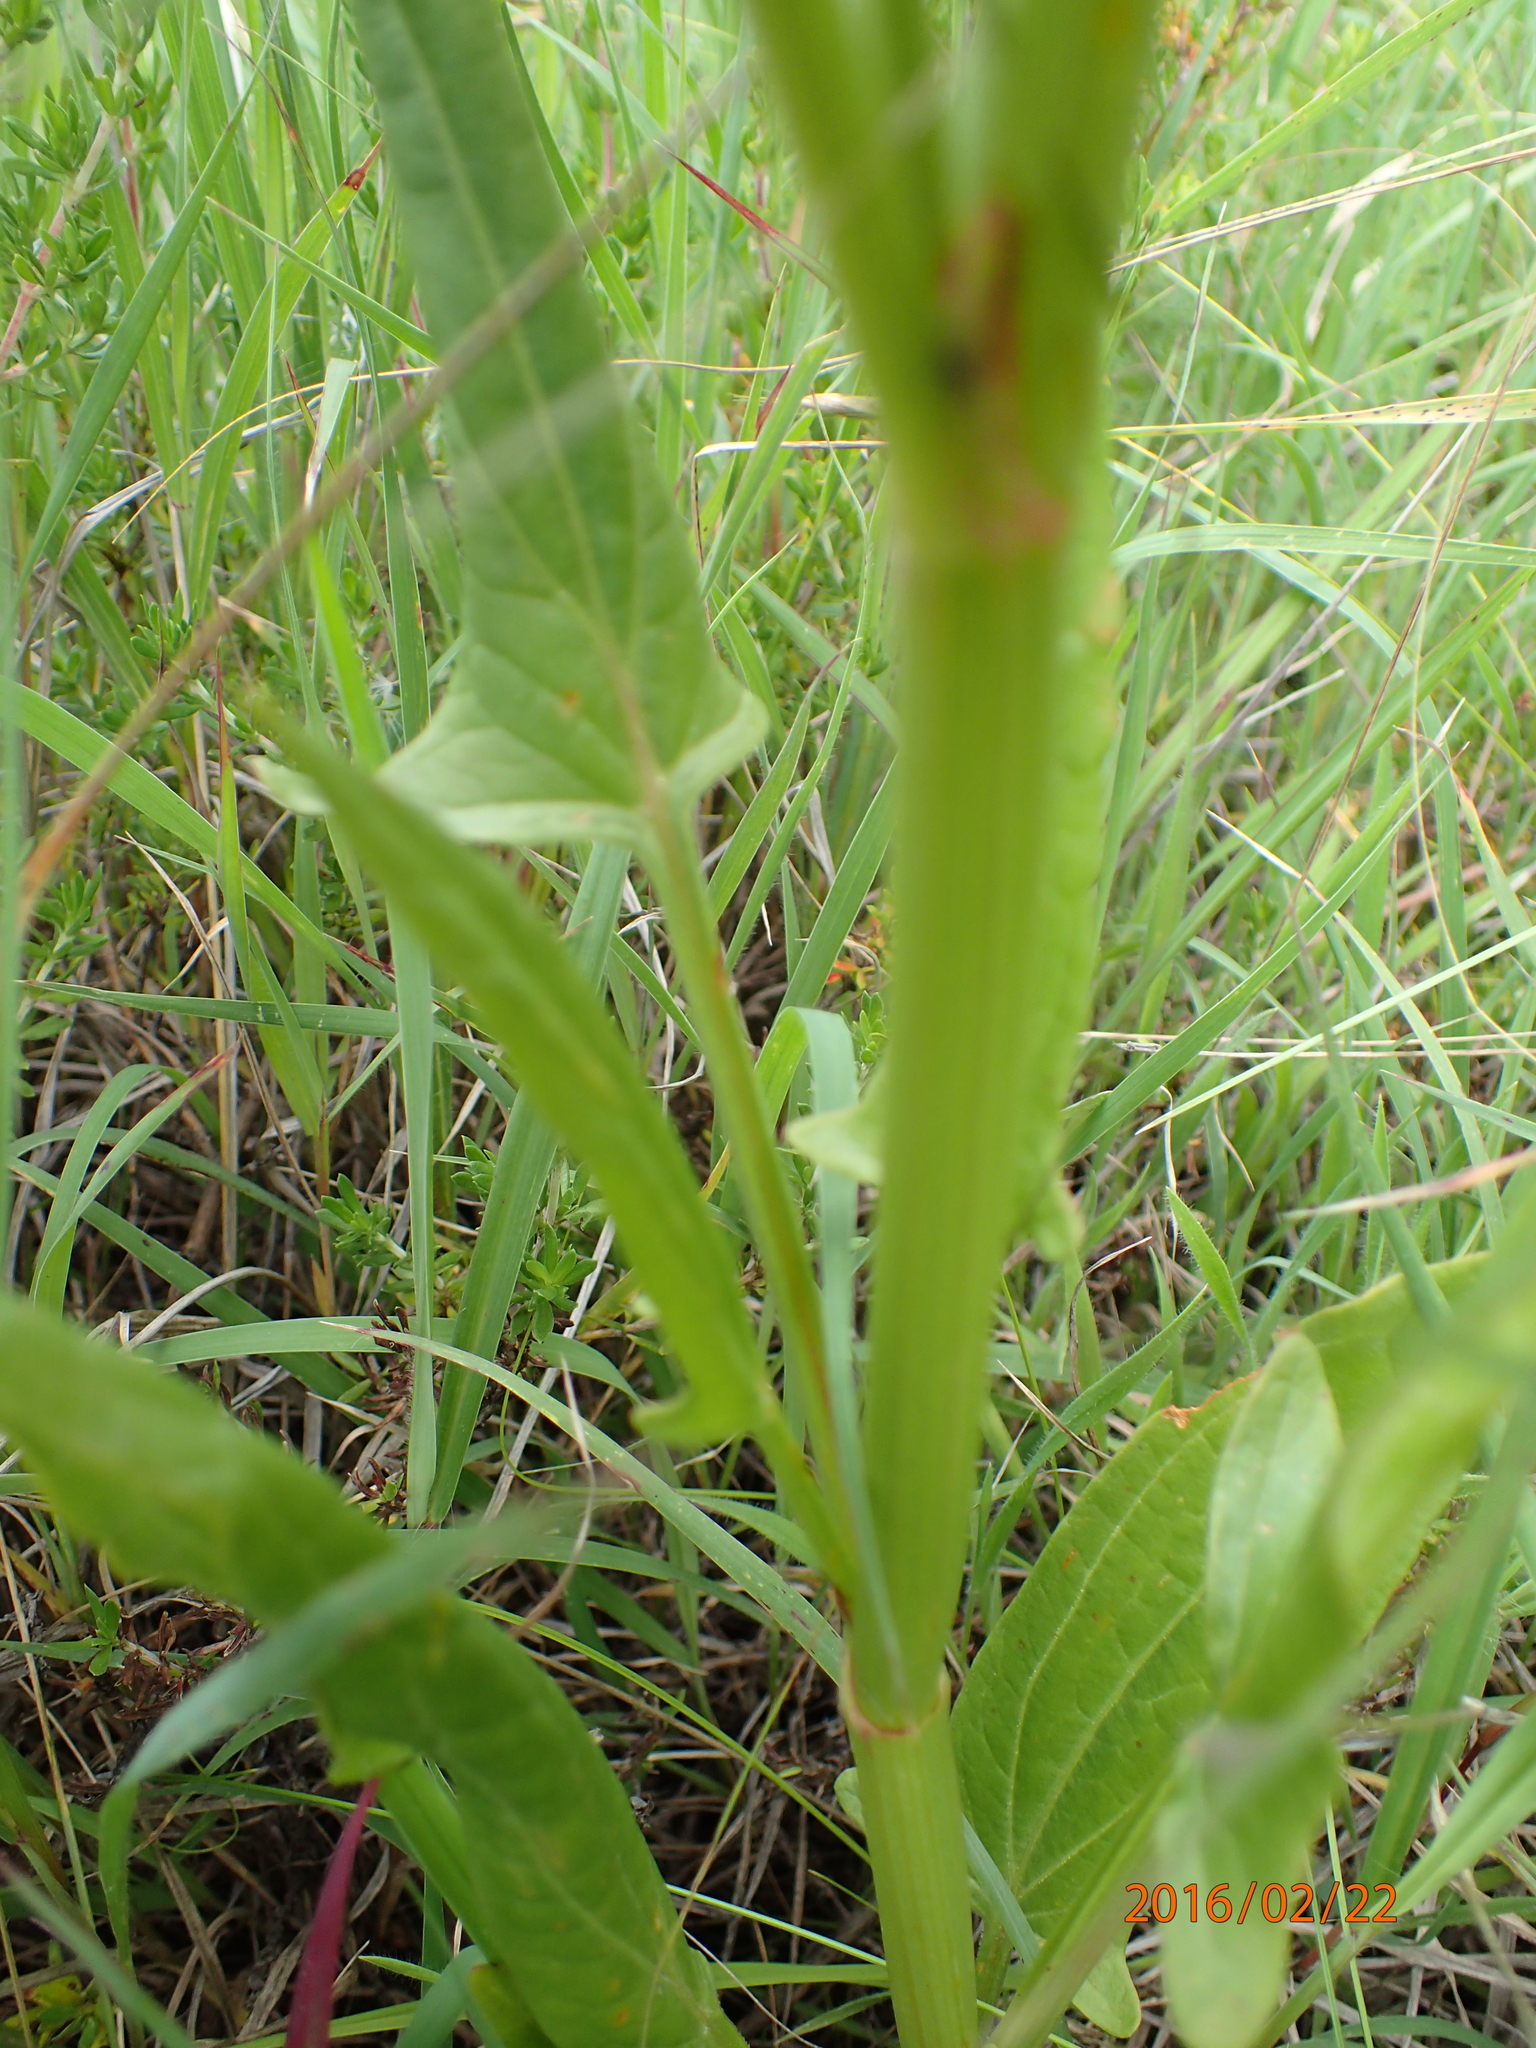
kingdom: Plantae
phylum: Tracheophyta
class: Magnoliopsida
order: Caryophyllales
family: Polygonaceae
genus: Rumex
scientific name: Rumex woodii
